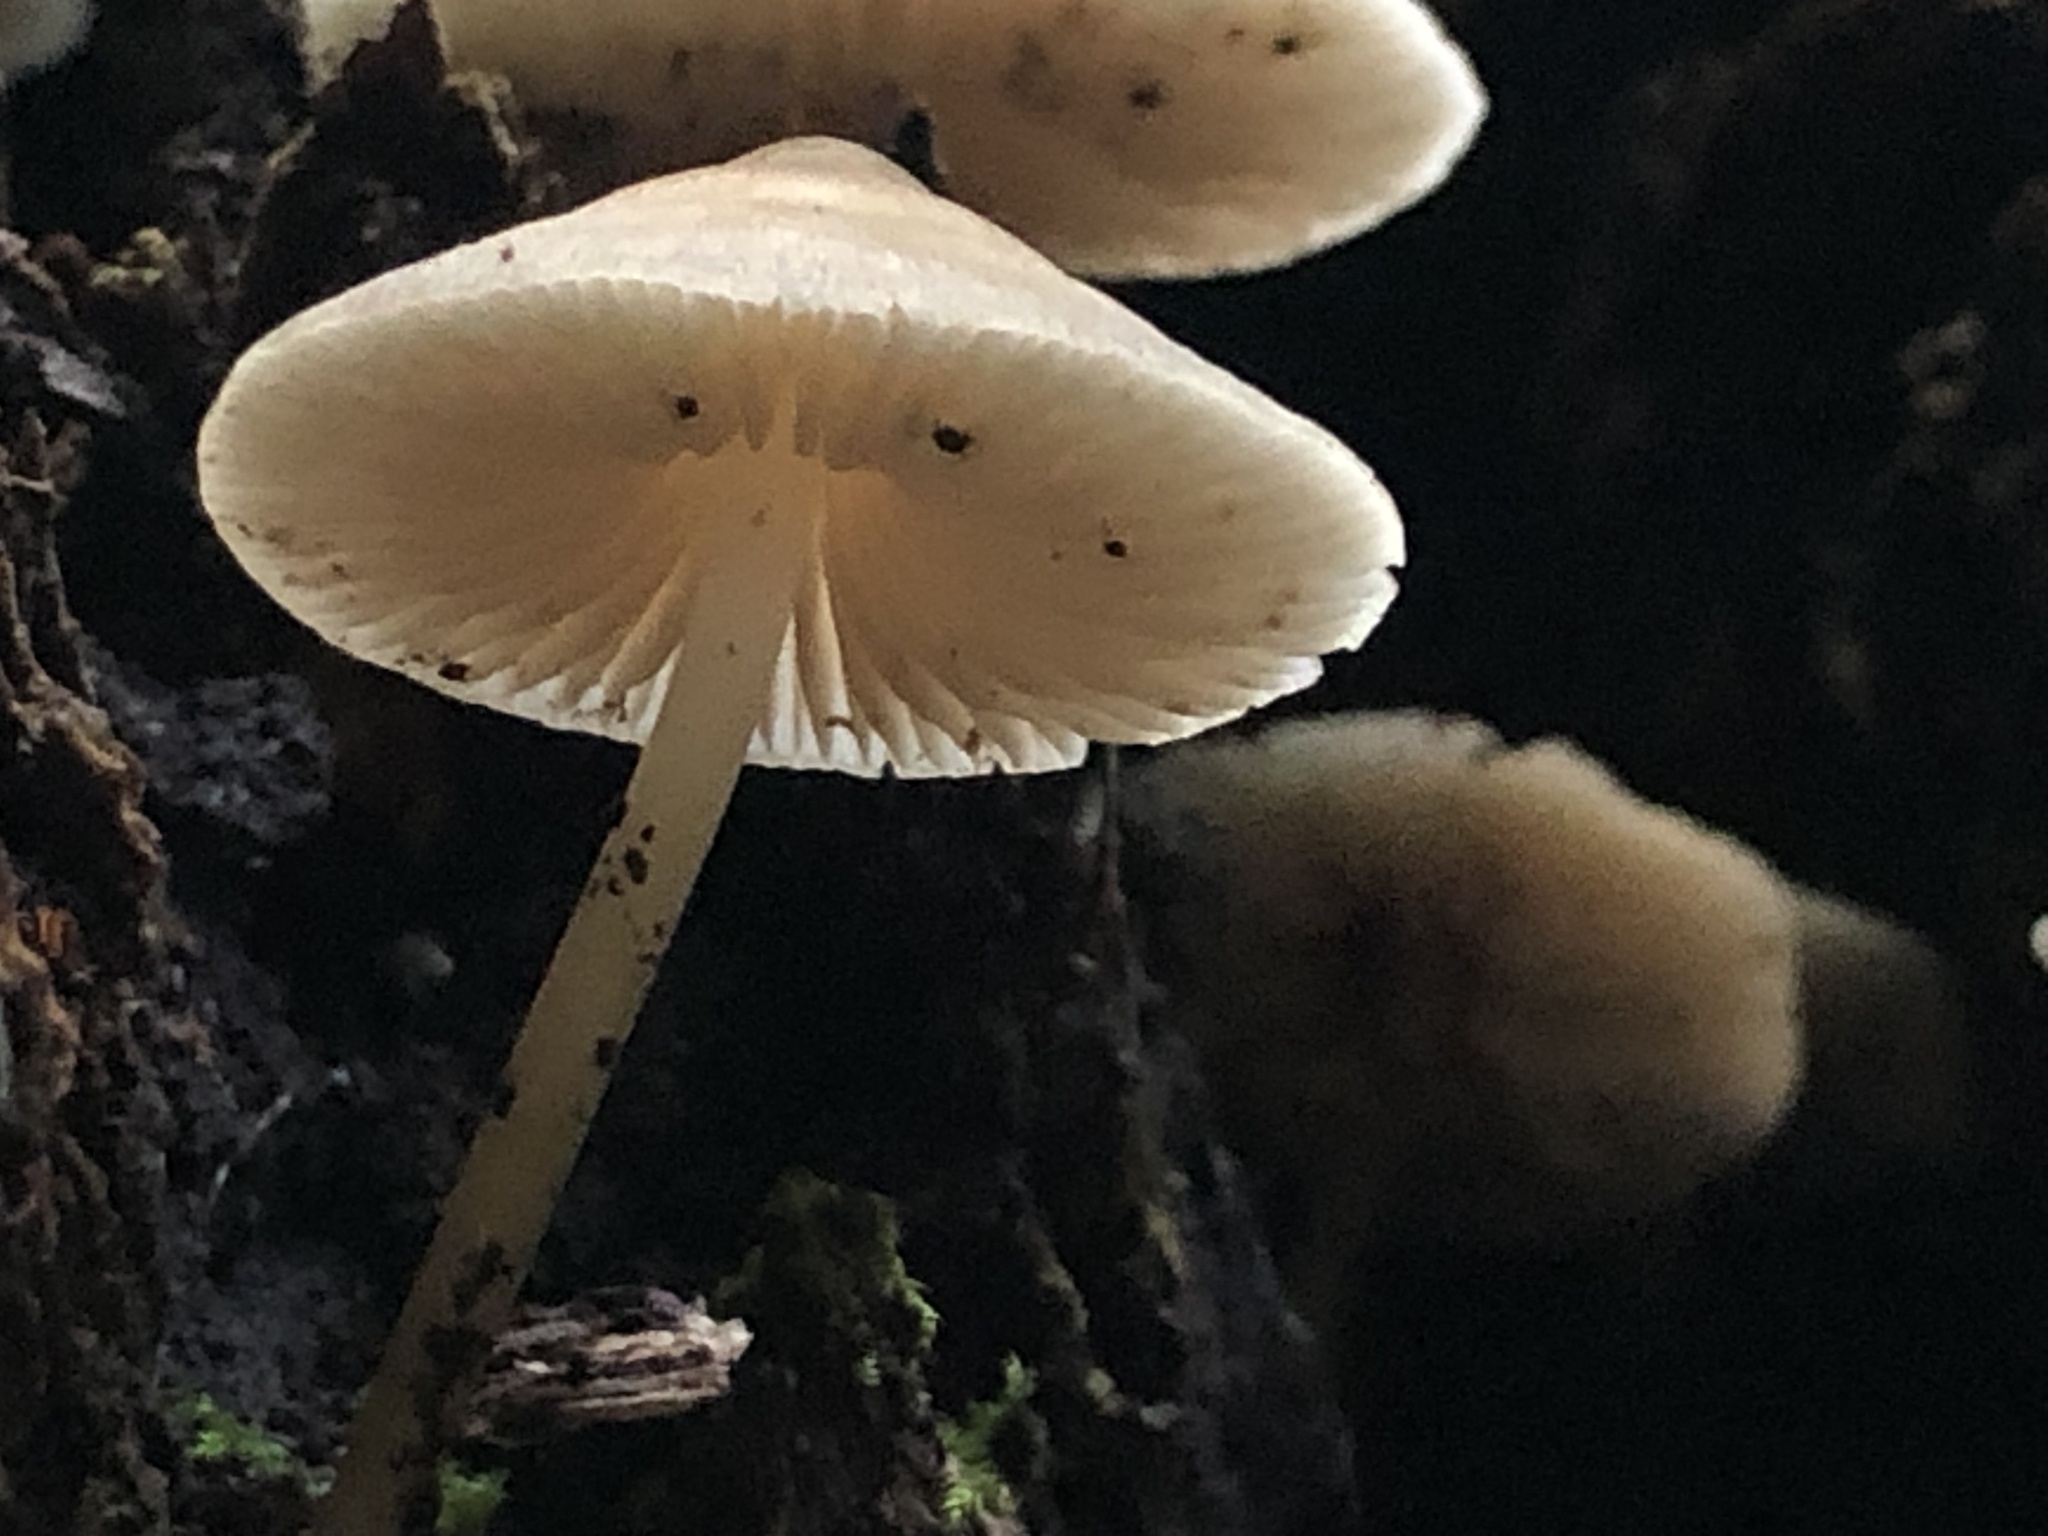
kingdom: Fungi
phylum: Basidiomycota
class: Agaricomycetes
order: Agaricales
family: Mycenaceae
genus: Mycena
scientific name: Mycena galericulata
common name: Bonnet mycena
